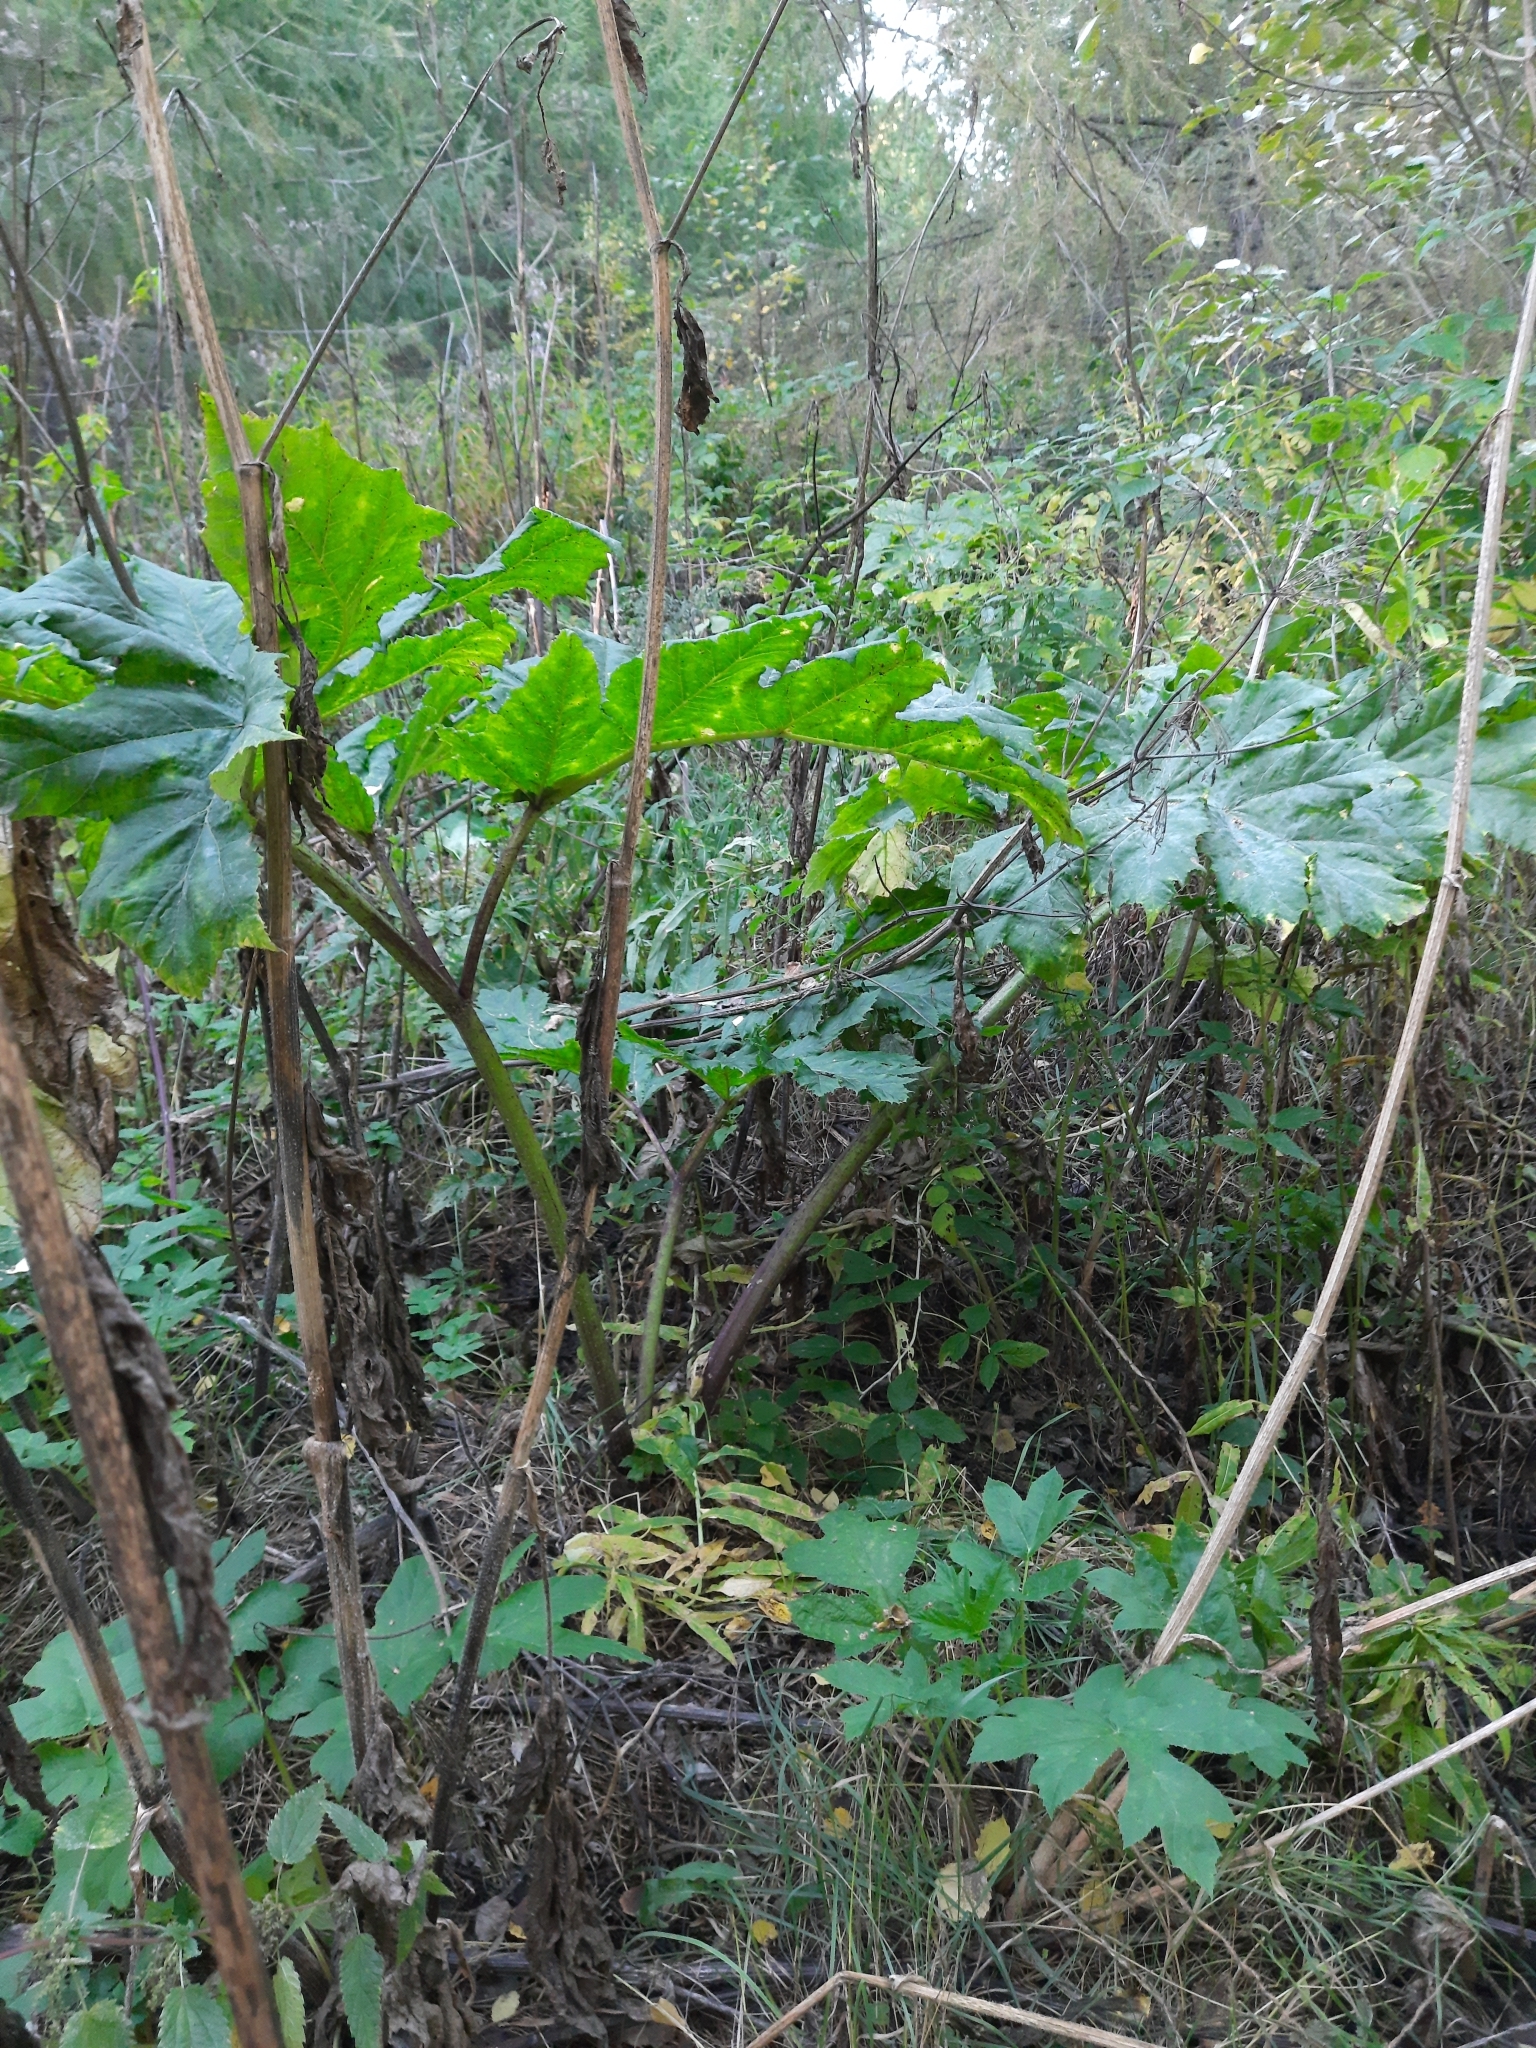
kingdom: Plantae
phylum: Tracheophyta
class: Magnoliopsida
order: Apiales
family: Apiaceae
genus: Heracleum
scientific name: Heracleum sosnowskyi
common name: Sosnowsky's hogweed
